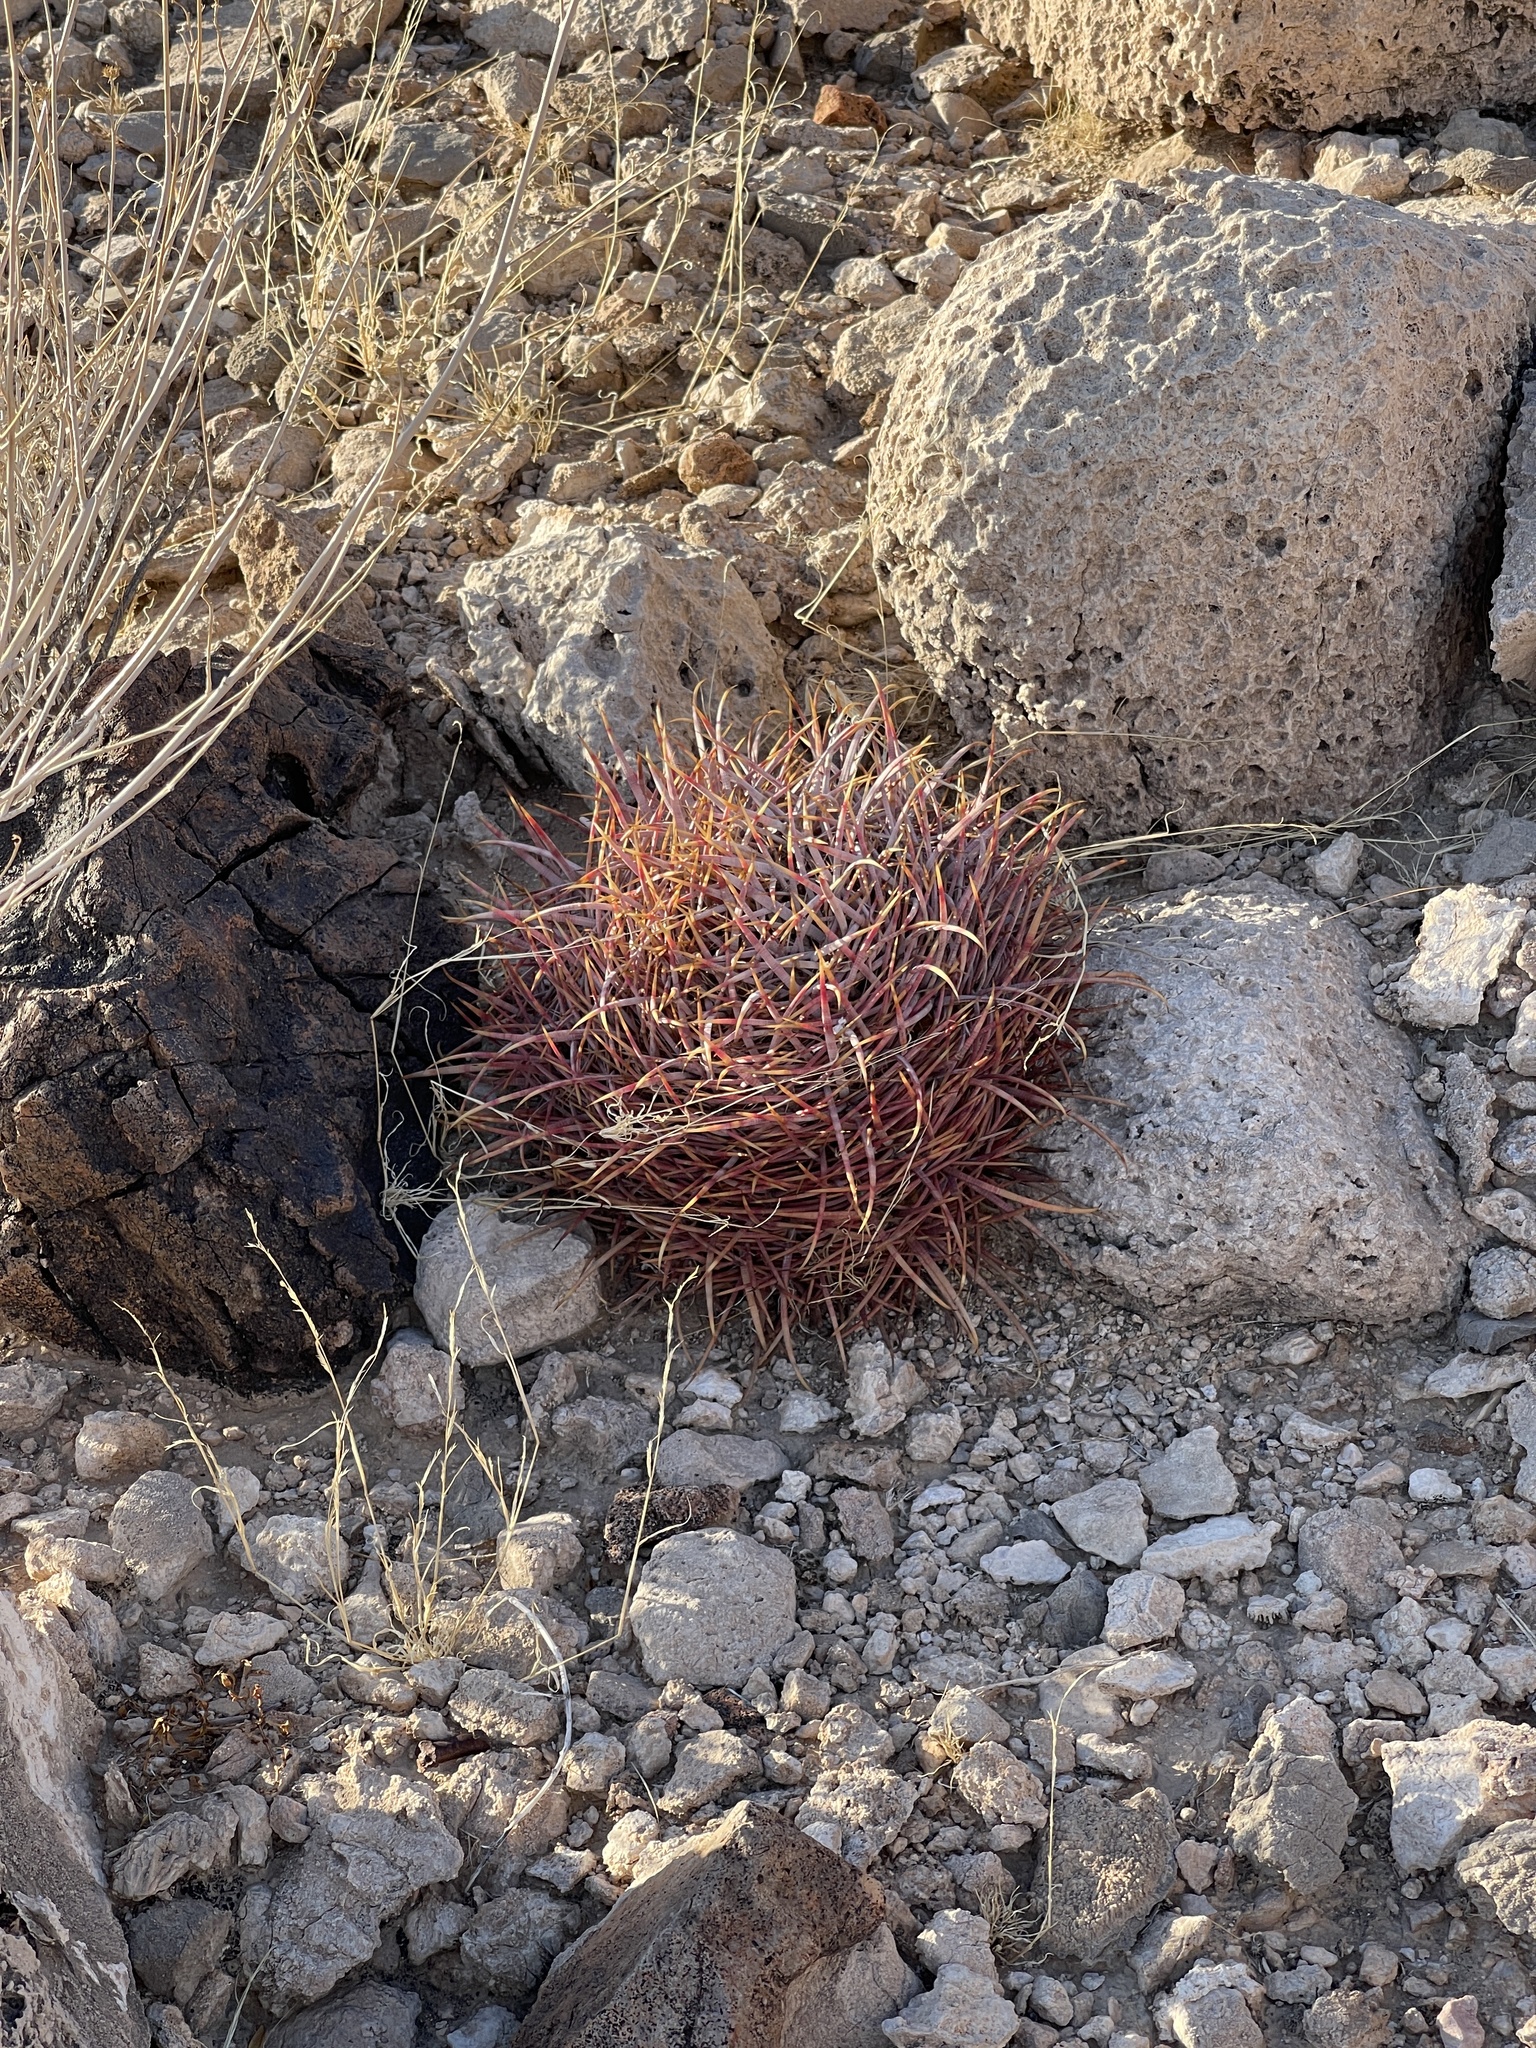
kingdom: Plantae
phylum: Tracheophyta
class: Magnoliopsida
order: Caryophyllales
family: Cactaceae
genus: Ferocactus
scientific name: Ferocactus cylindraceus
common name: California barrel cactus
